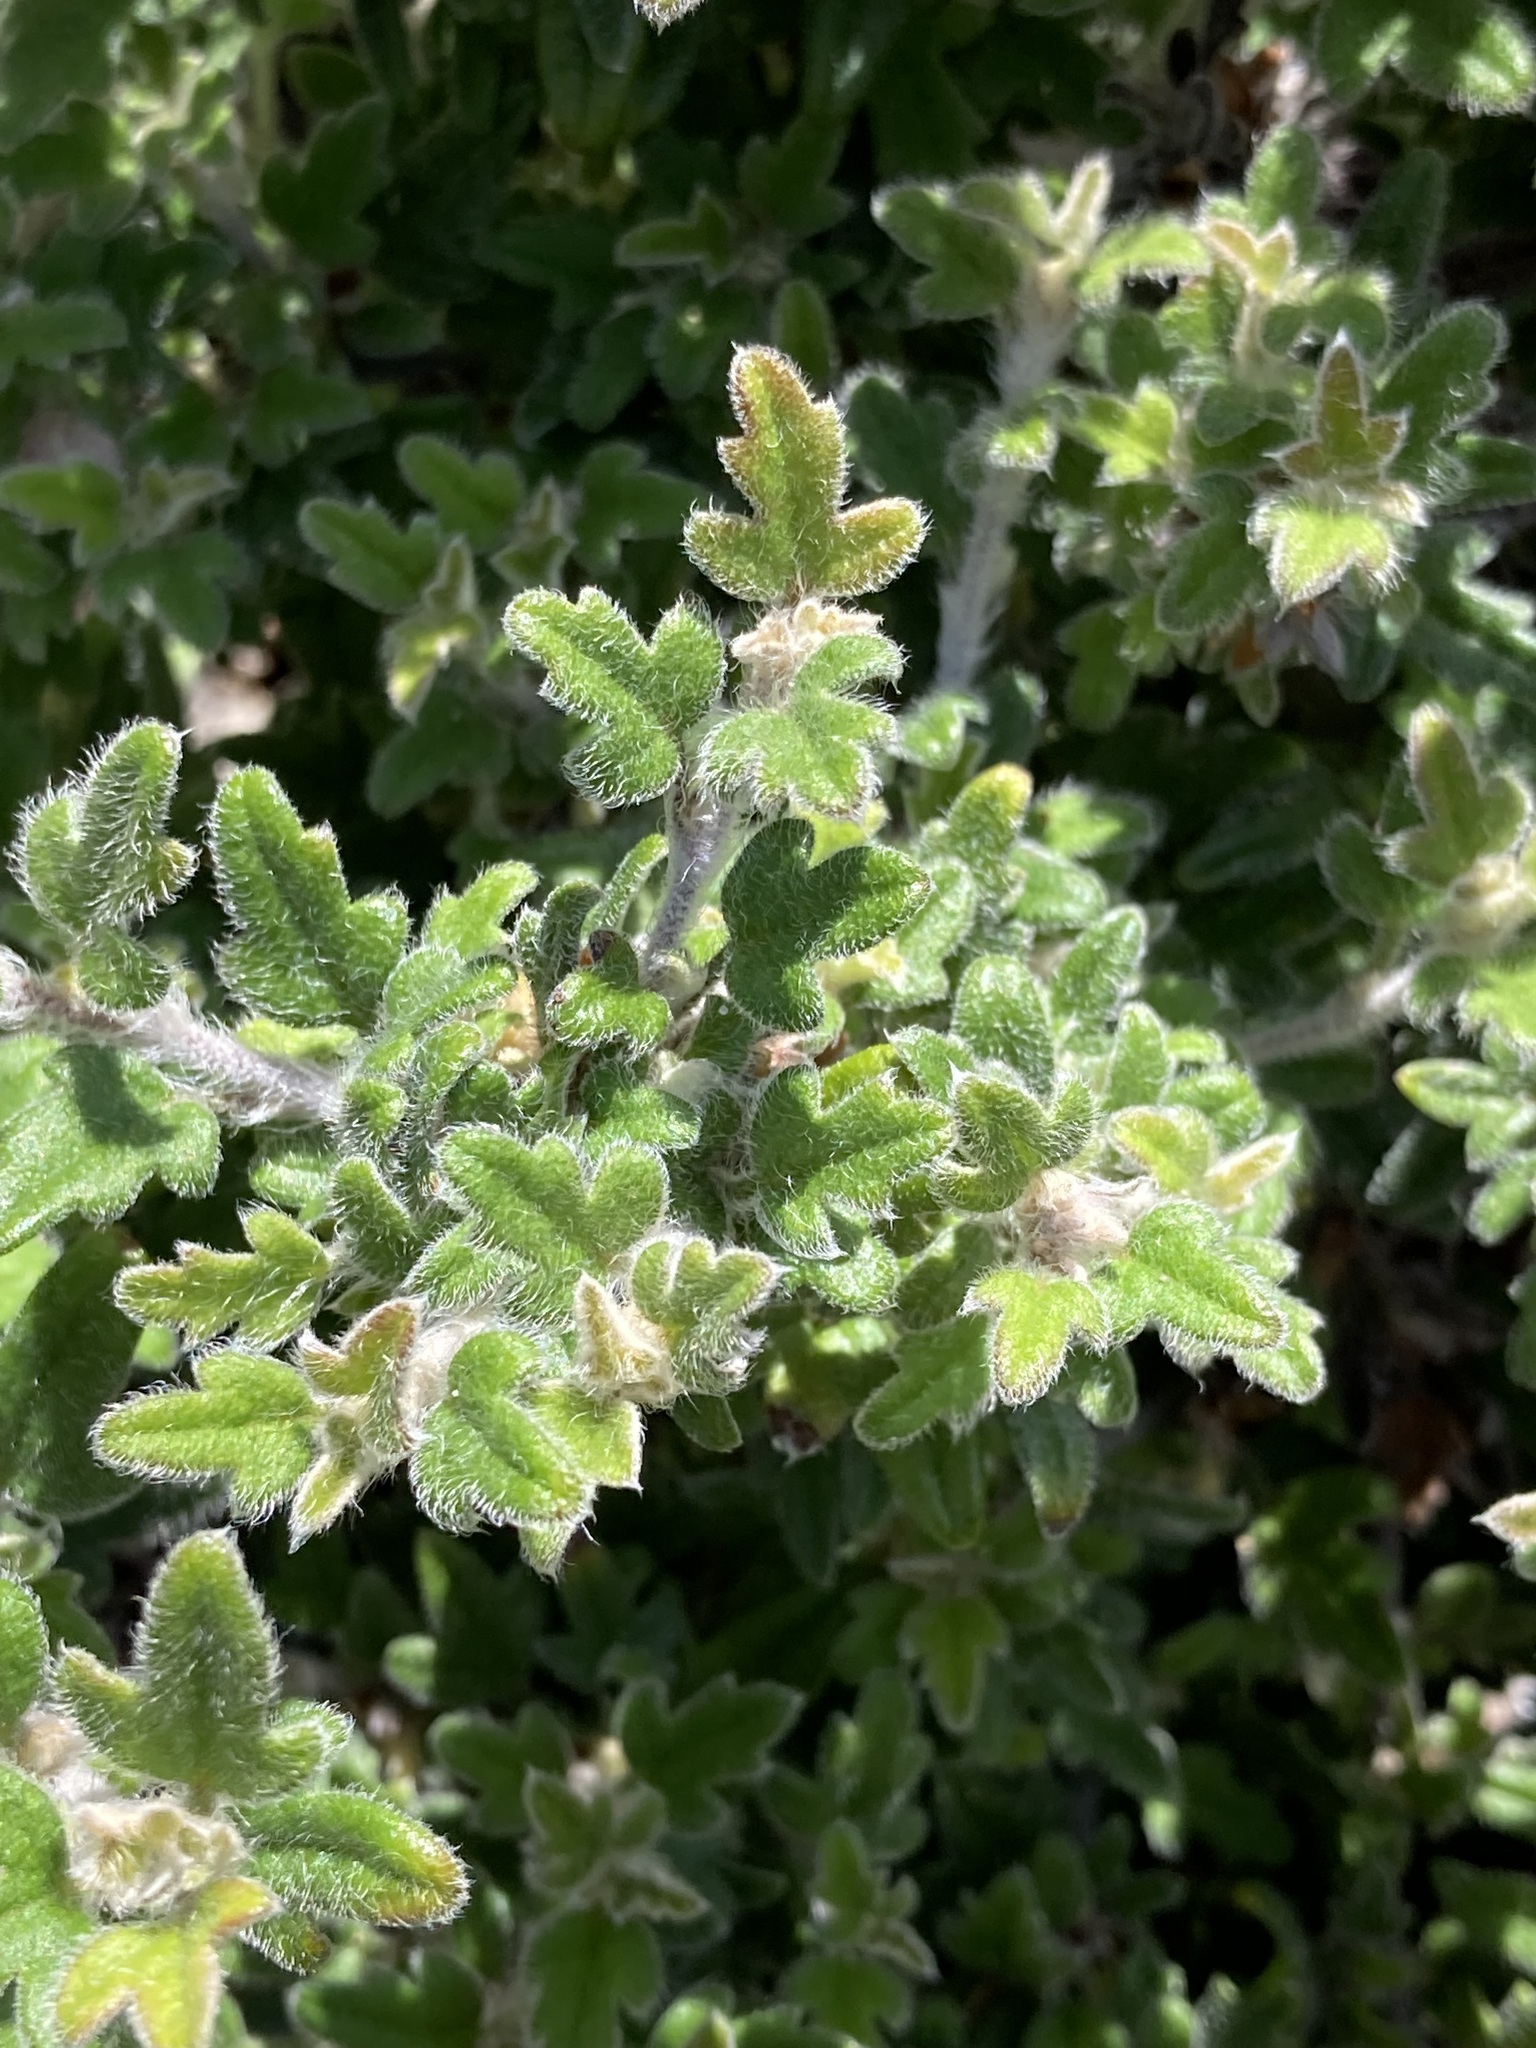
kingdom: Plantae
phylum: Tracheophyta
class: Magnoliopsida
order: Apiales
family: Apiaceae
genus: Xanthosia
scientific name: Xanthosia pilosa
